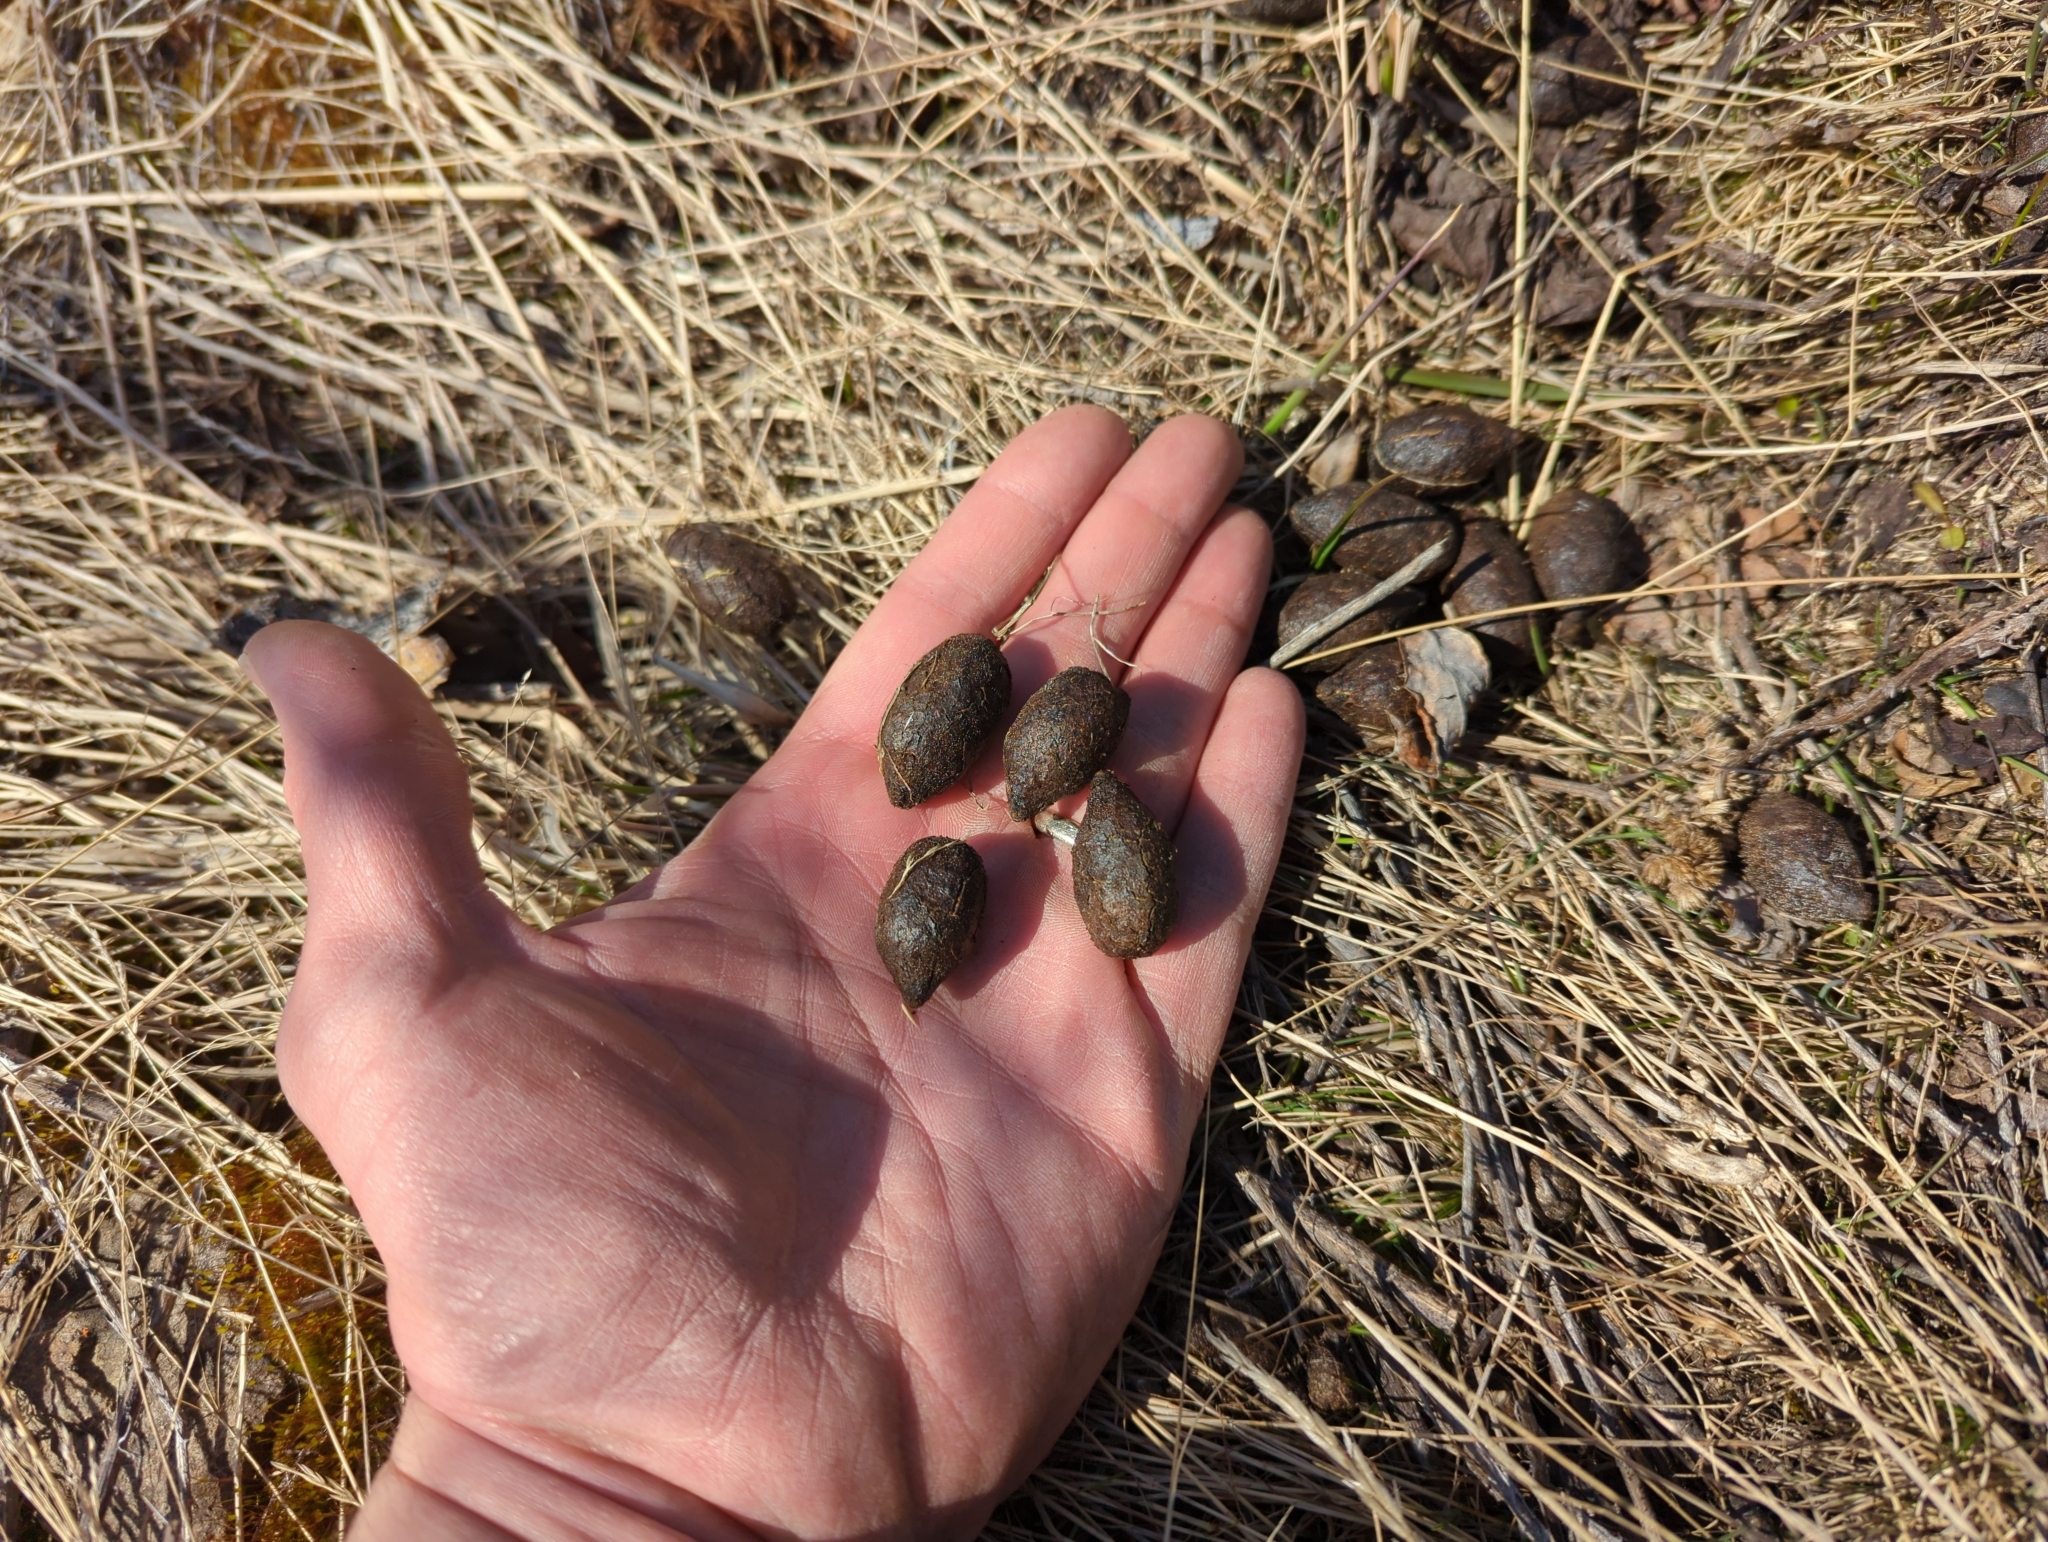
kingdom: Animalia
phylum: Chordata
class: Mammalia
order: Artiodactyla
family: Cervidae
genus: Alces
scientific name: Alces alces
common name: Moose
